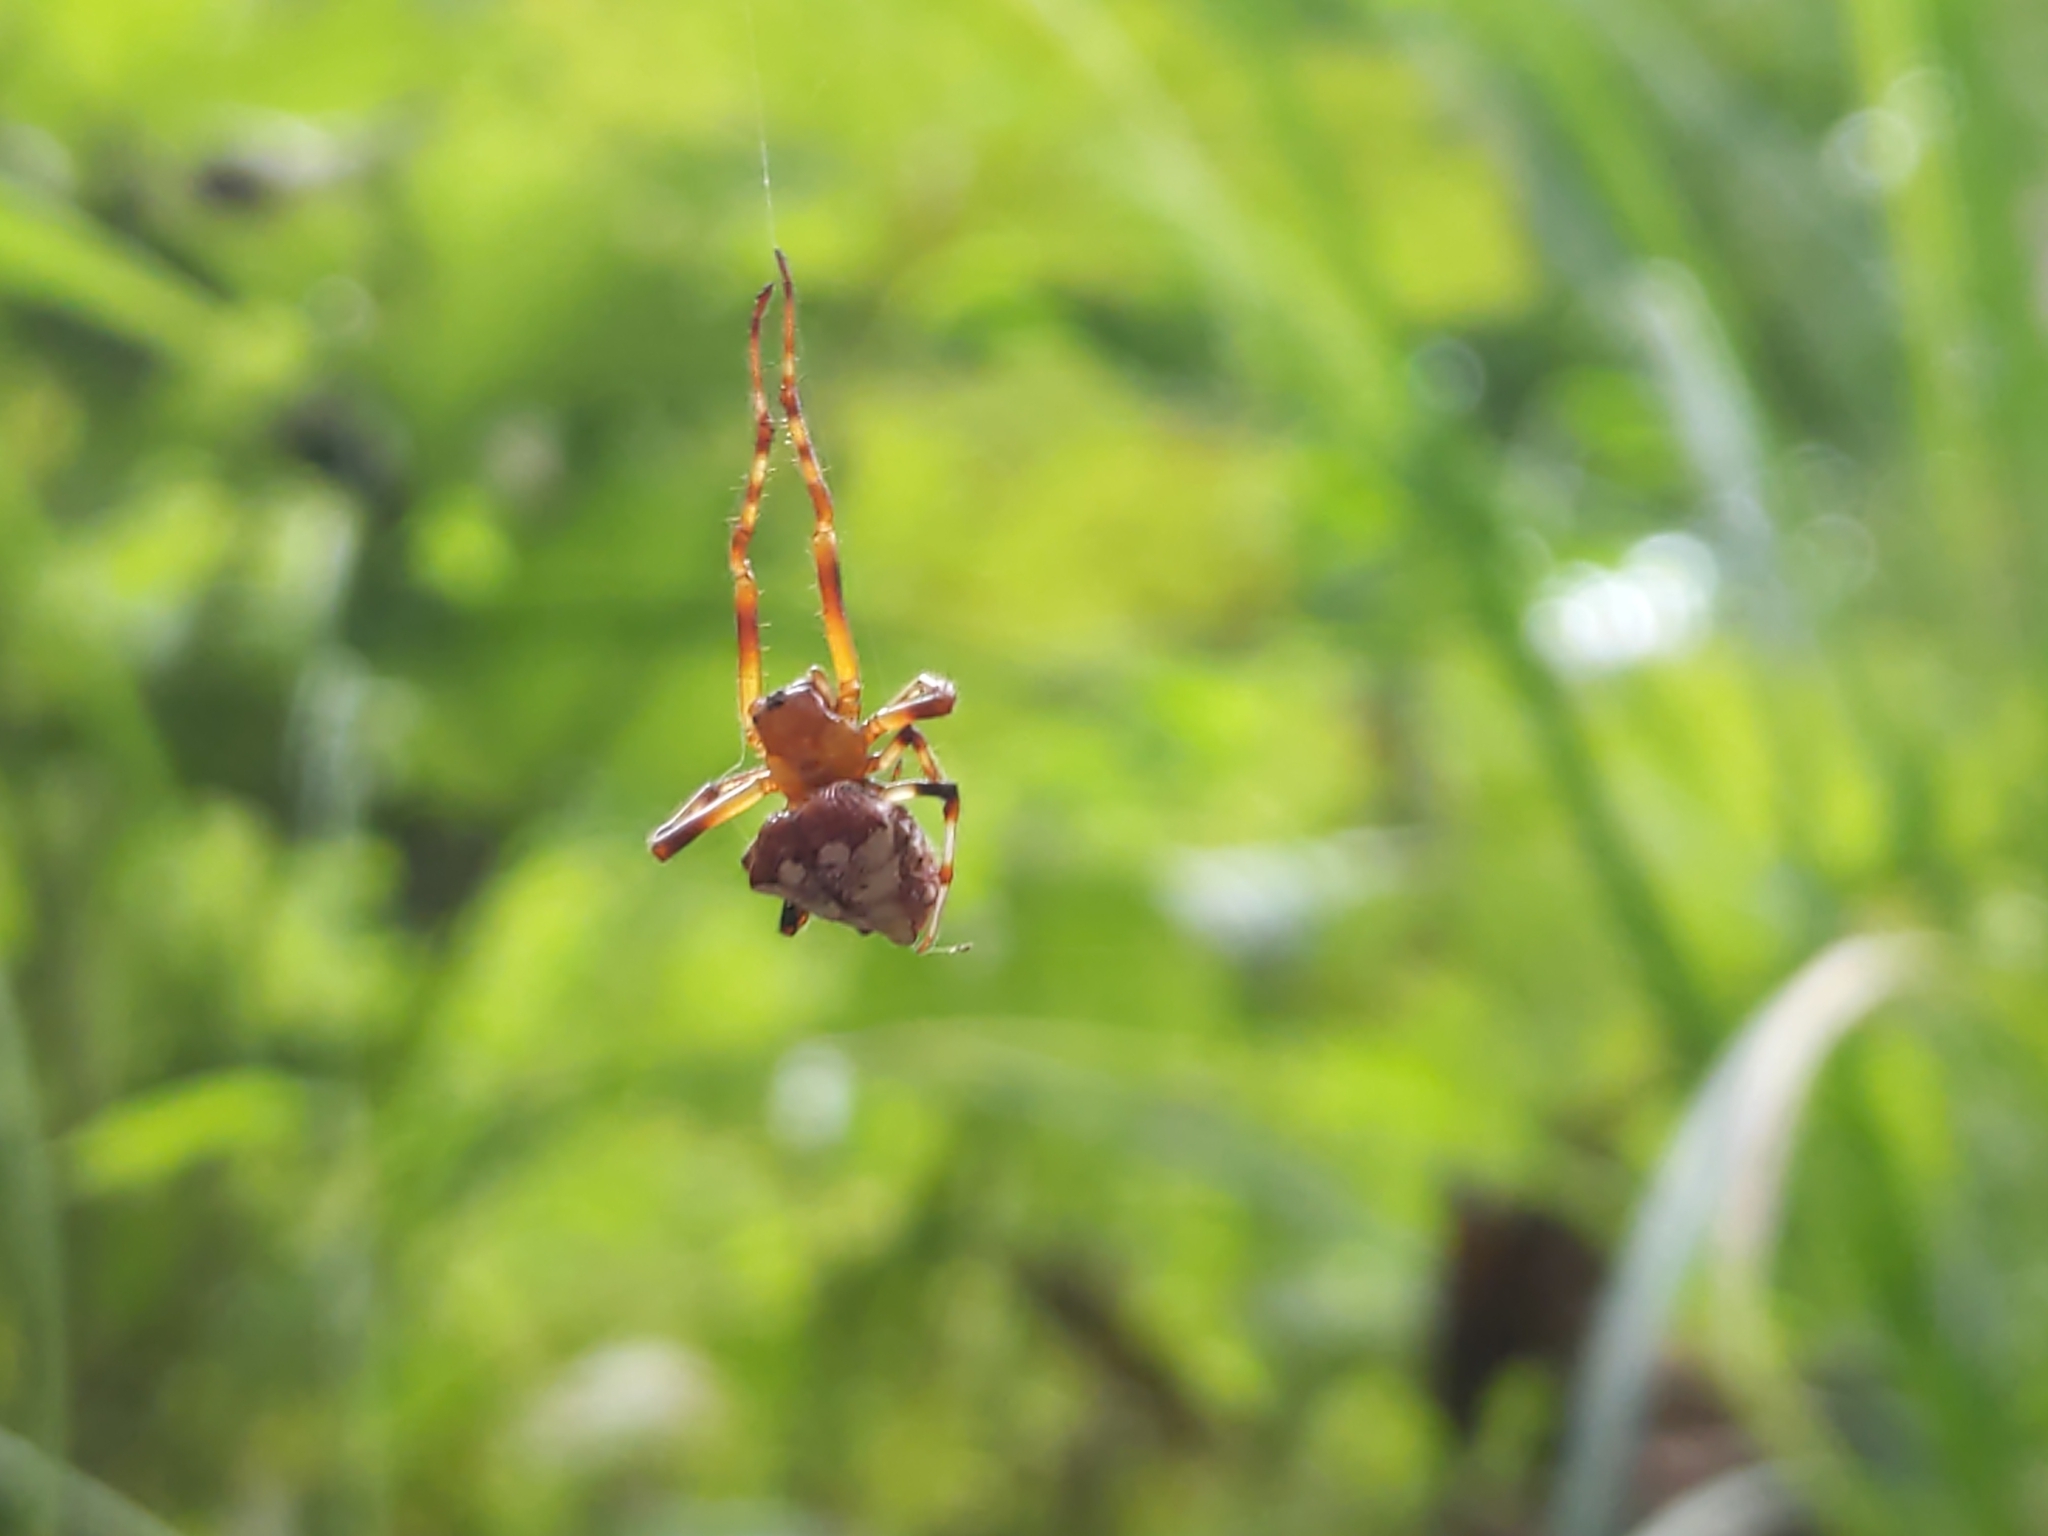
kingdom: Animalia
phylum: Arthropoda
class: Arachnida
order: Araneae
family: Araneidae
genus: Verrucosa
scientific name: Verrucosa arenata
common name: Orb weavers
